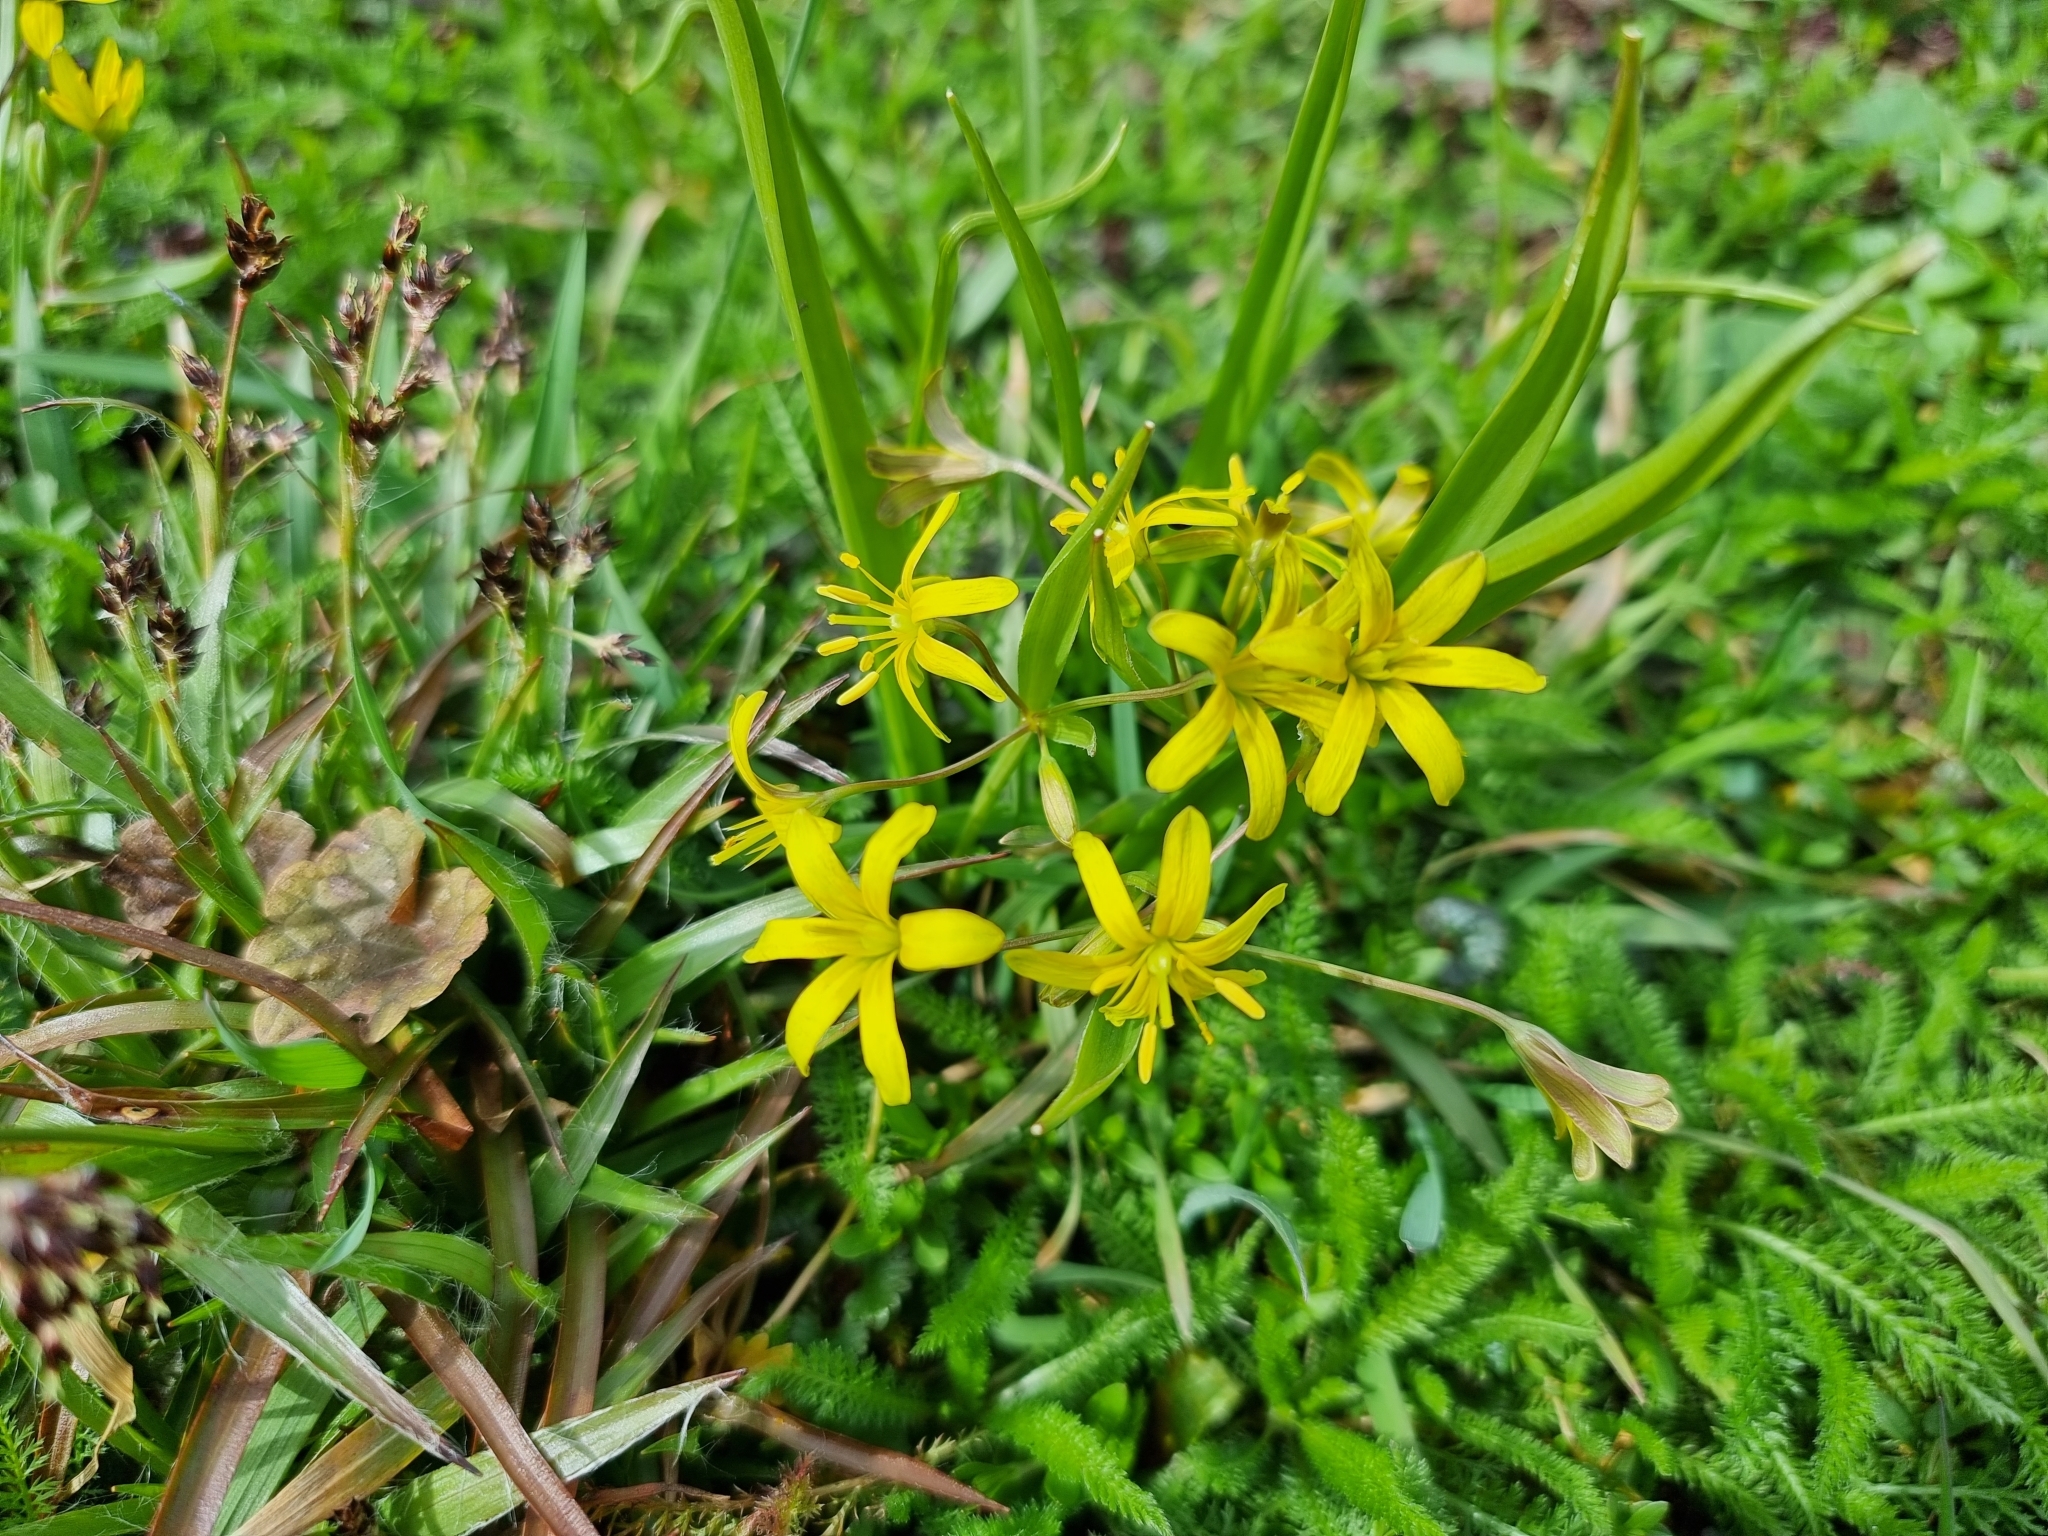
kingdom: Plantae
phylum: Tracheophyta
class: Liliopsida
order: Liliales
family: Liliaceae
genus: Gagea
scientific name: Gagea lutea
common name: Yellow star-of-bethlehem
